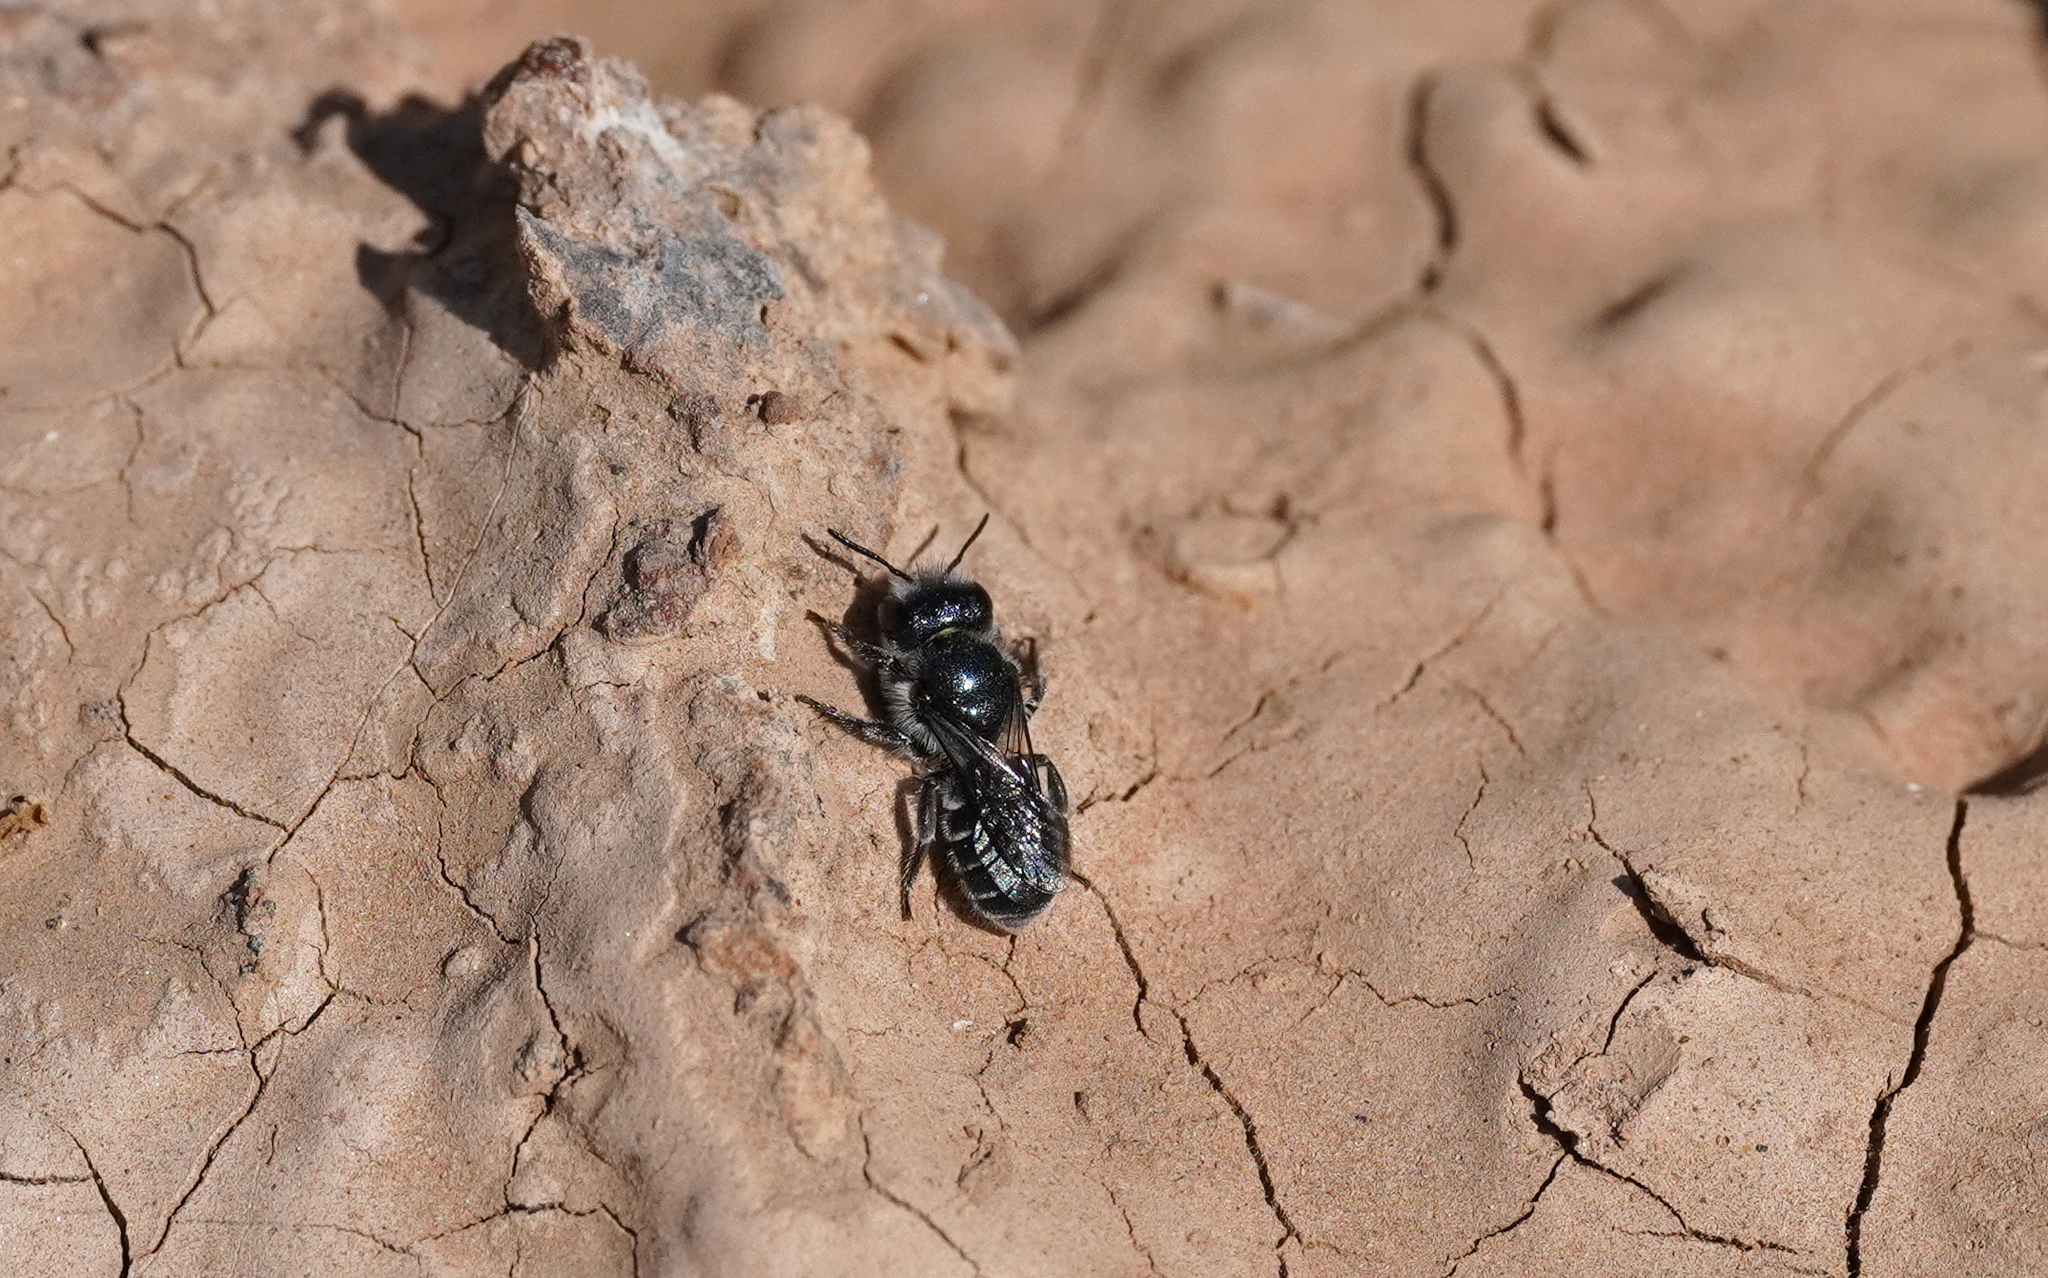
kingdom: Animalia
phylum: Arthropoda
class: Insecta
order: Hymenoptera
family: Megachilidae
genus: Osmia
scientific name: Osmia submicans
